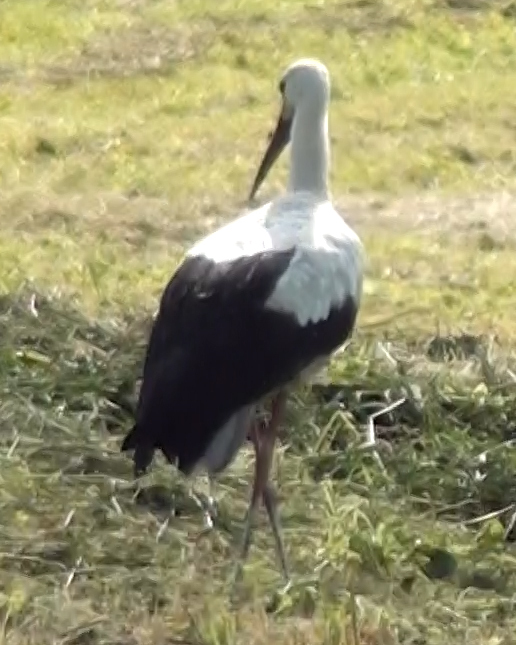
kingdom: Animalia
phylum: Chordata
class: Aves
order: Ciconiiformes
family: Ciconiidae
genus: Ciconia
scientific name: Ciconia ciconia
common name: White stork
